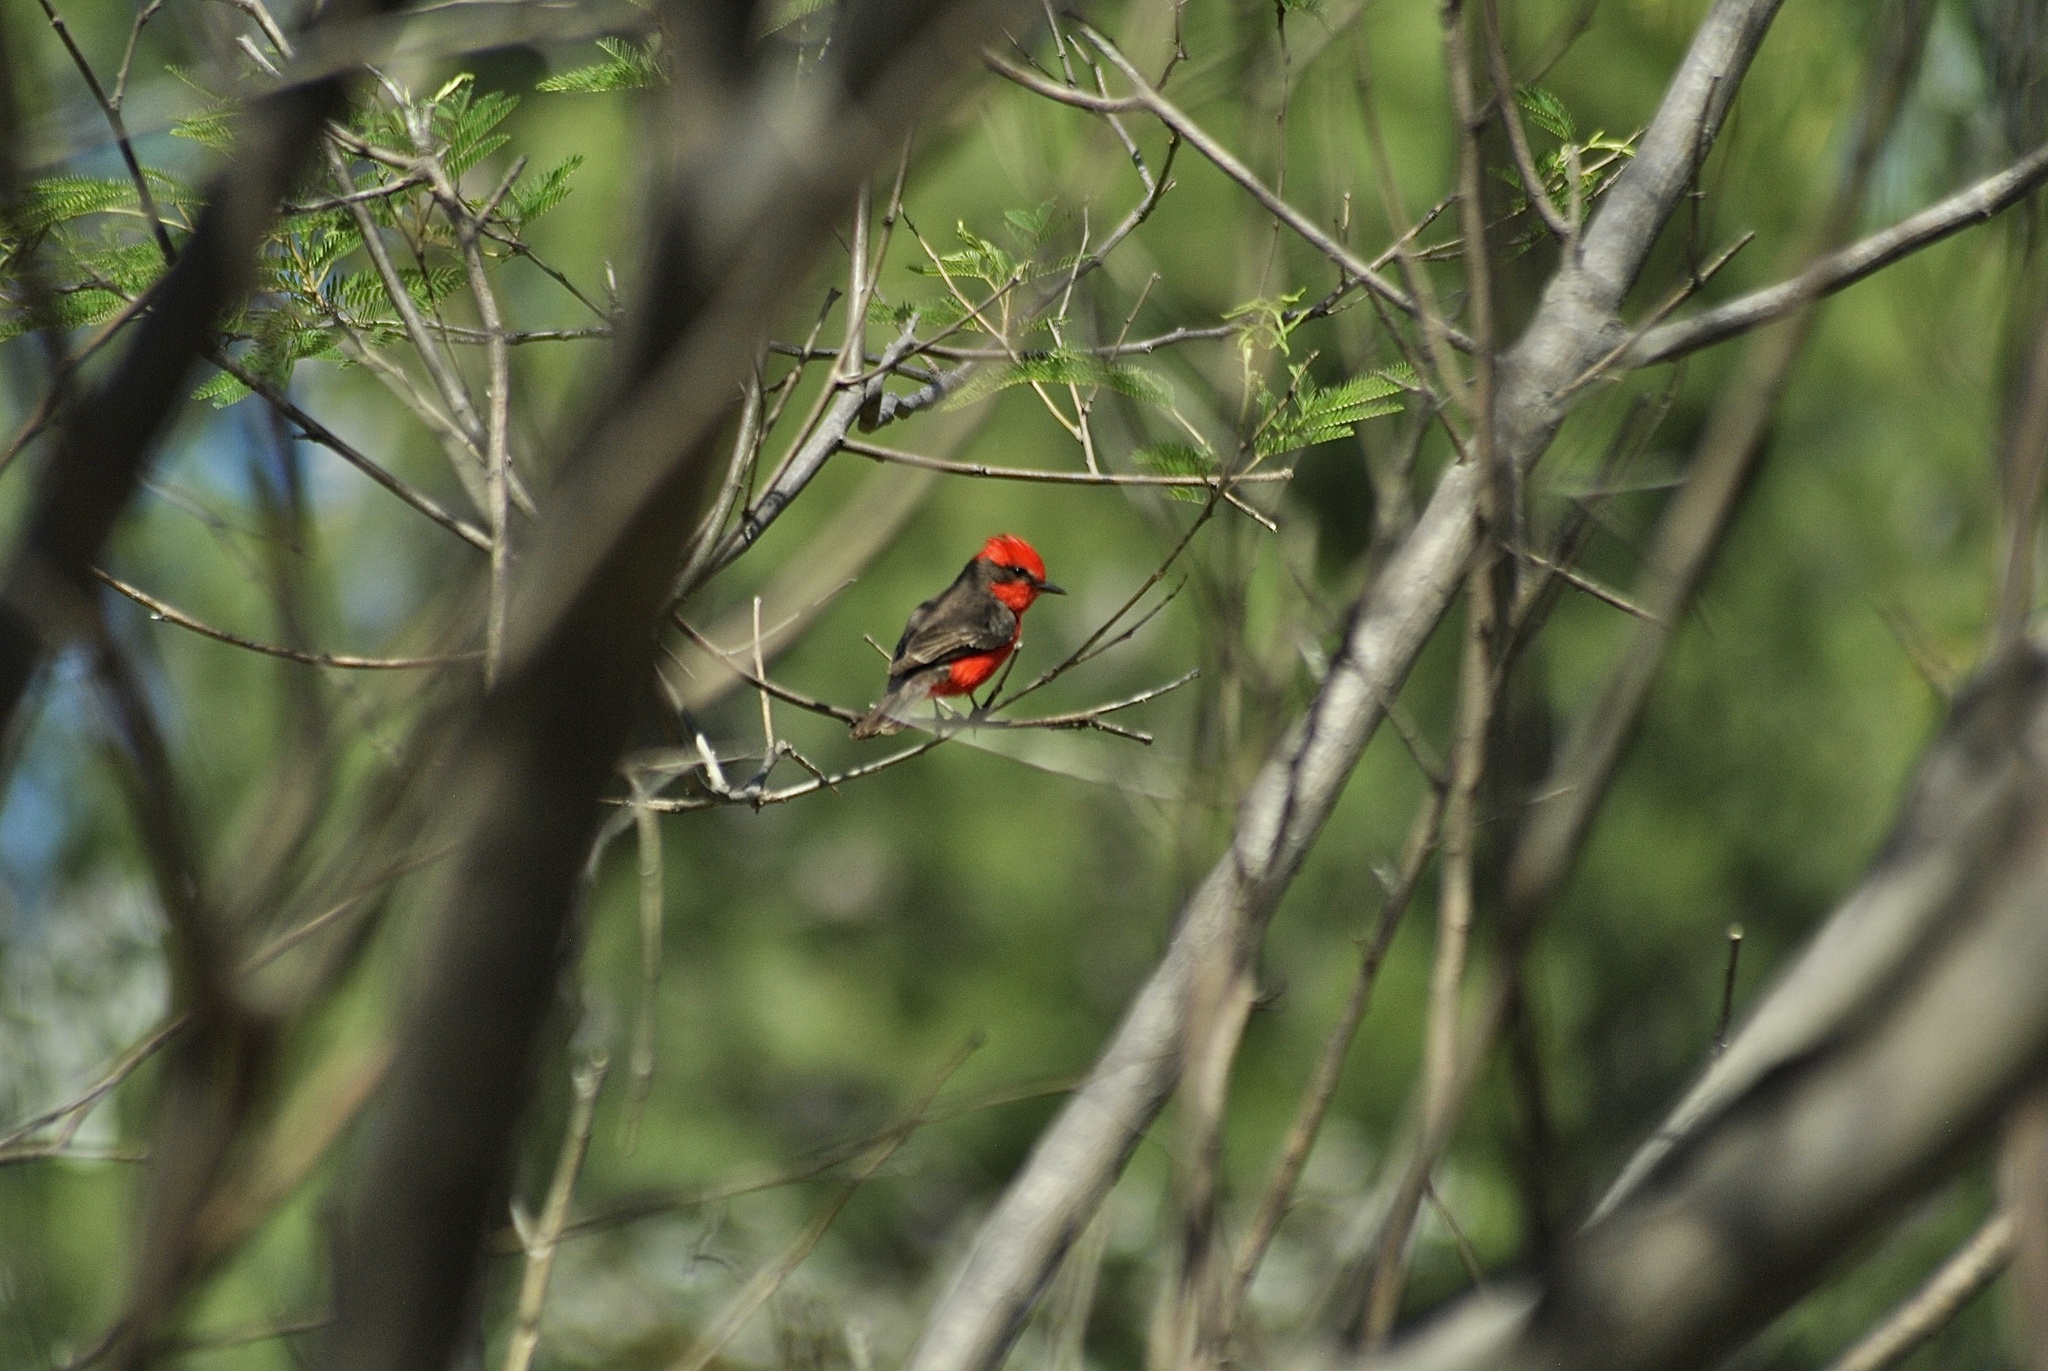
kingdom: Animalia
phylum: Chordata
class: Aves
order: Passeriformes
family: Tyrannidae
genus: Pyrocephalus
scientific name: Pyrocephalus rubinus
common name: Vermilion flycatcher
